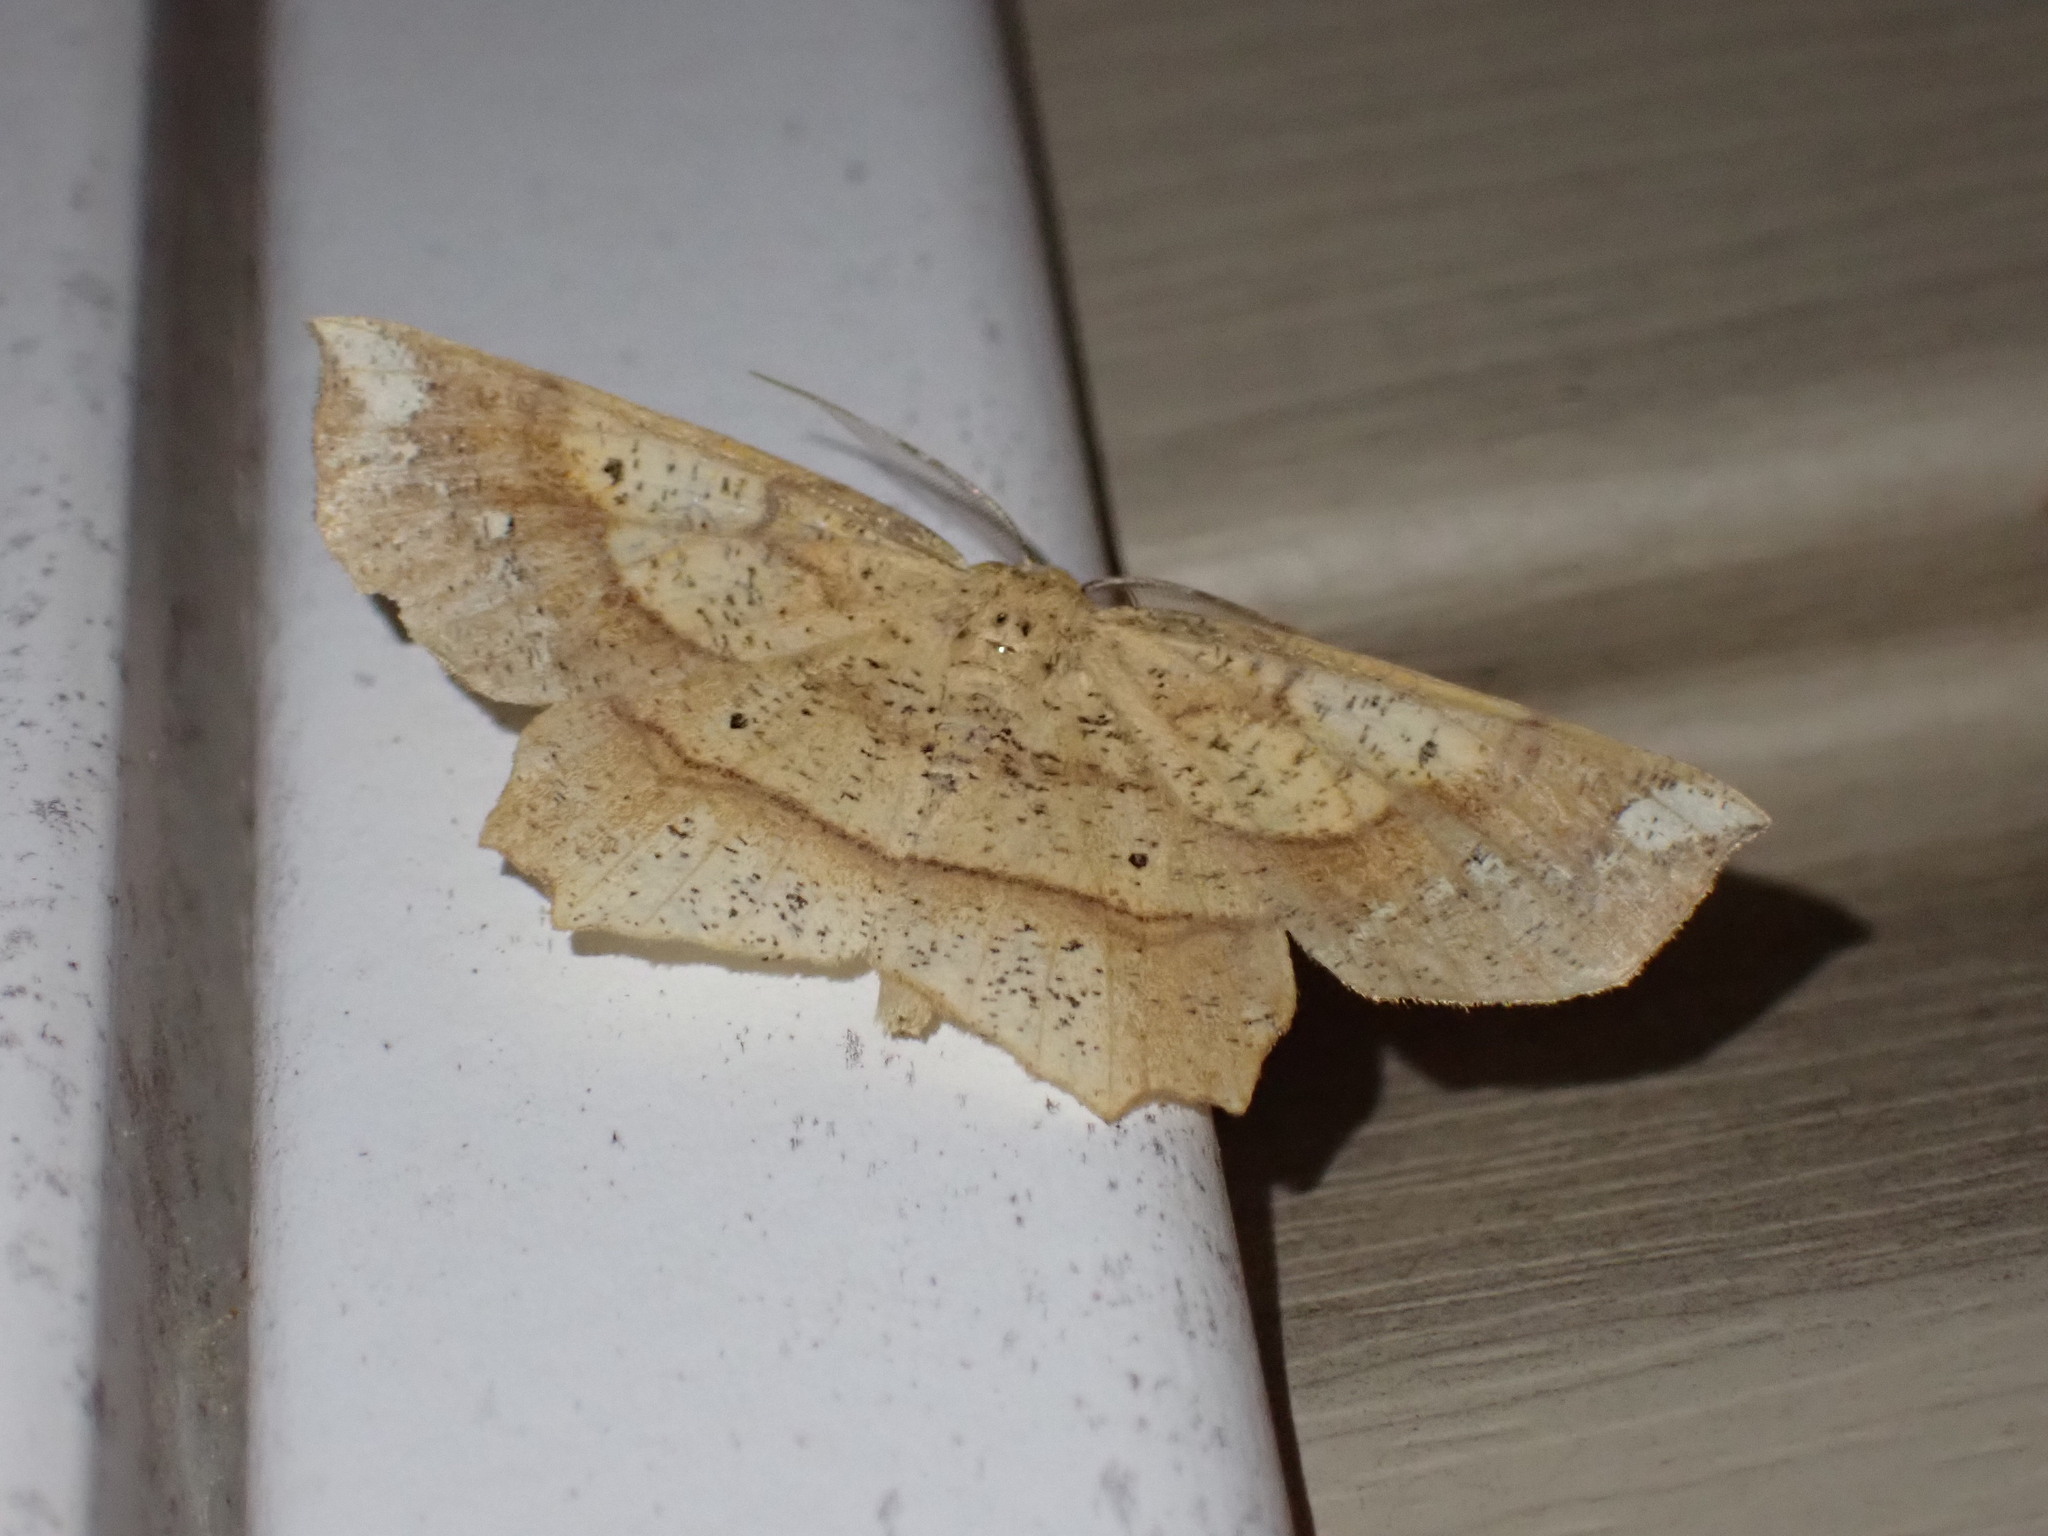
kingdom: Animalia
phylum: Arthropoda
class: Insecta
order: Lepidoptera
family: Geometridae
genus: Euchlaena
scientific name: Euchlaena amoenaria
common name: Deep yellow euchlaena
